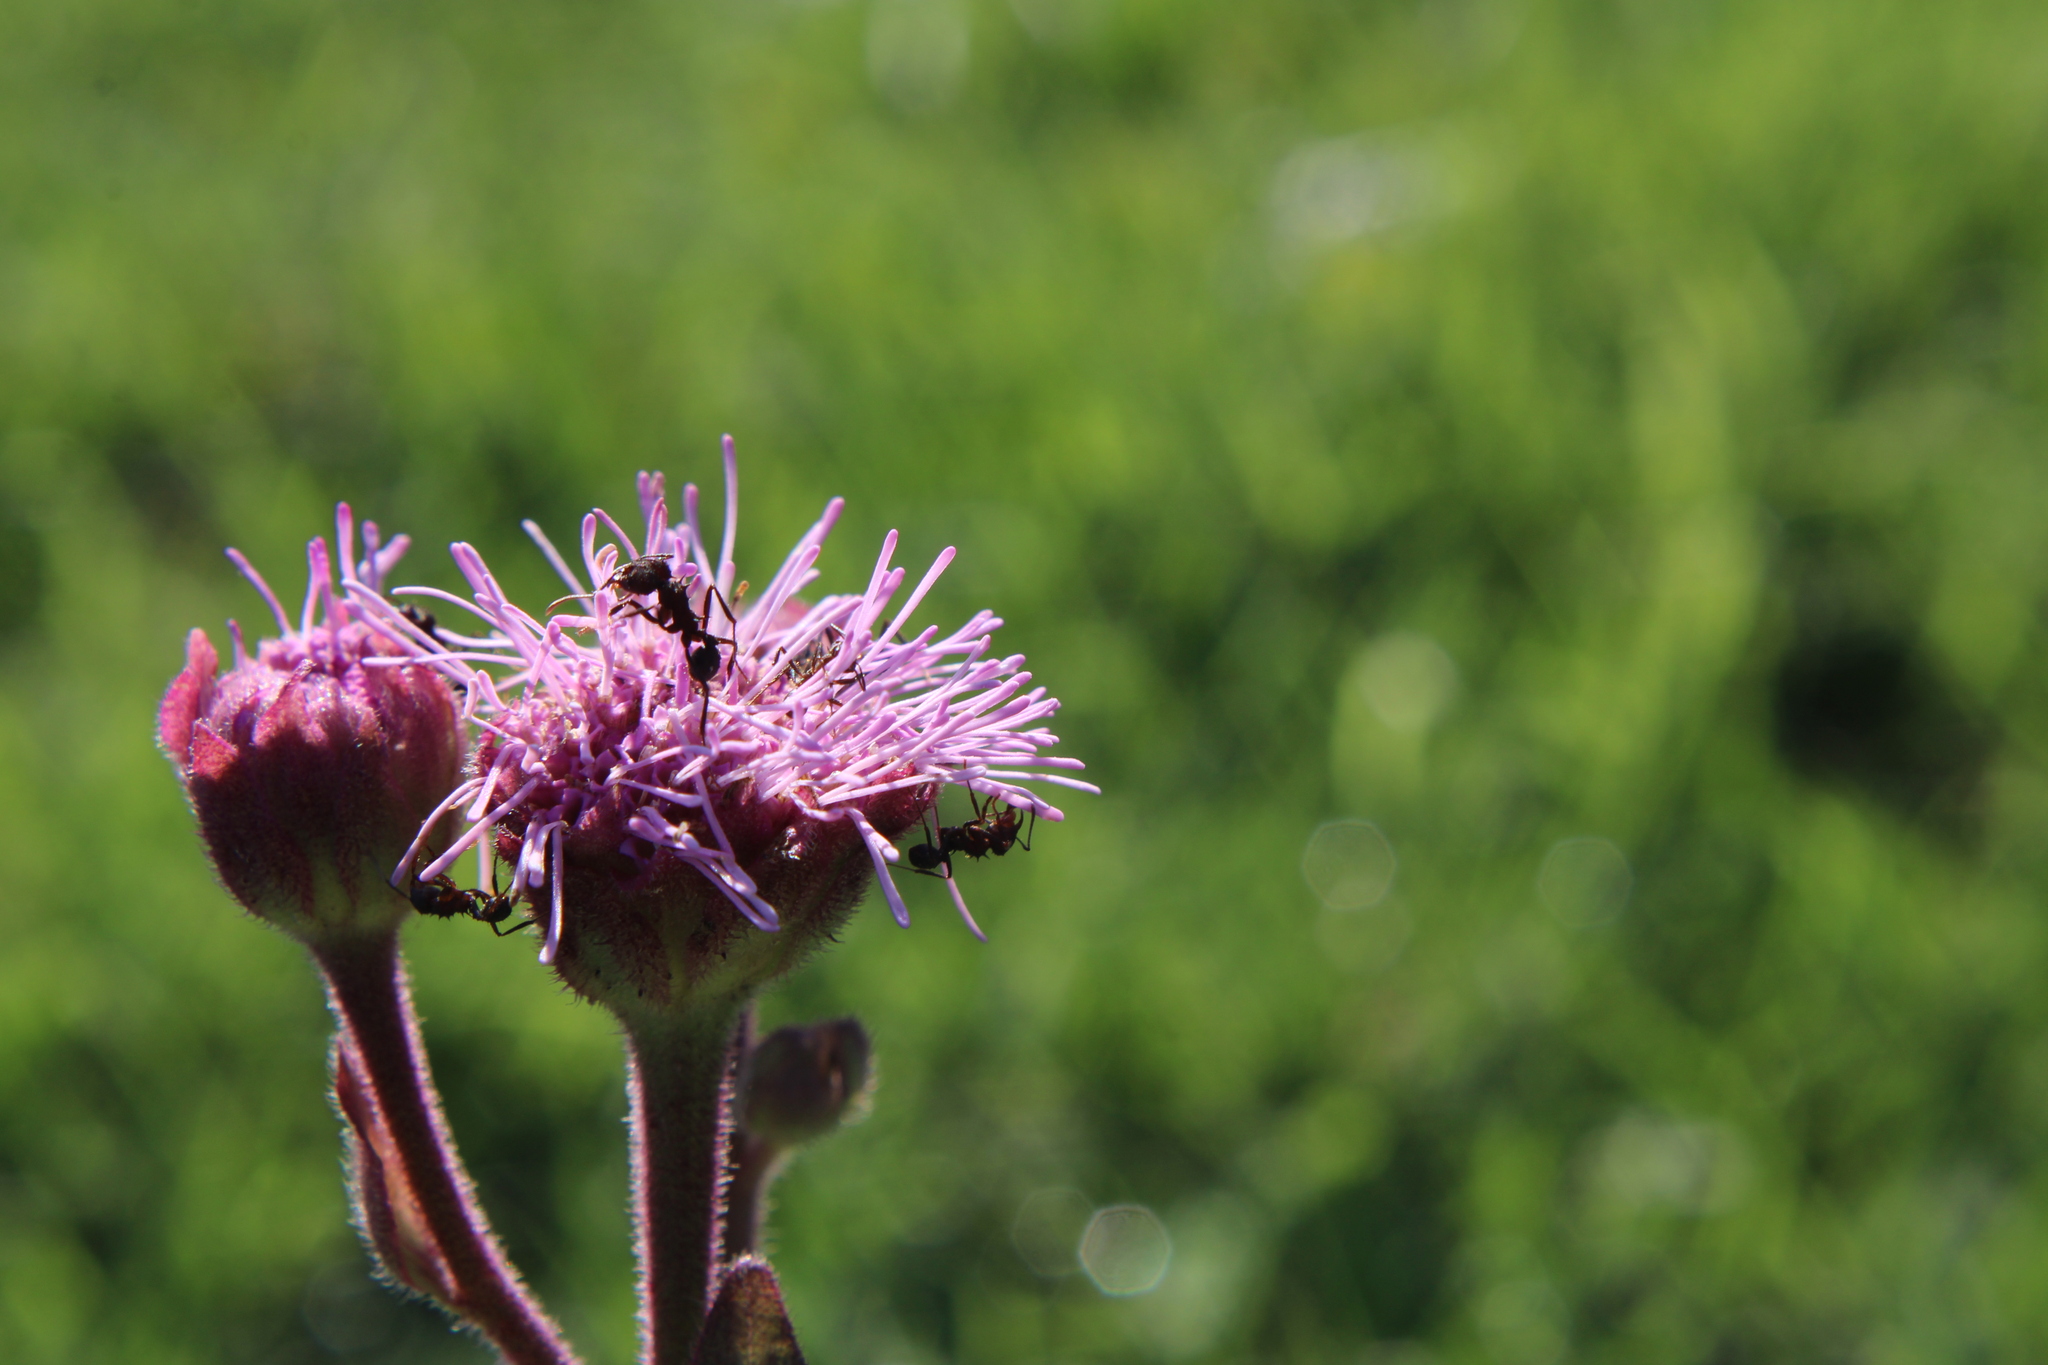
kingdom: Plantae
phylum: Tracheophyta
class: Magnoliopsida
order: Asterales
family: Asteraceae
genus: Campuloclinium
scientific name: Campuloclinium macrocephalum
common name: Pompomweed
